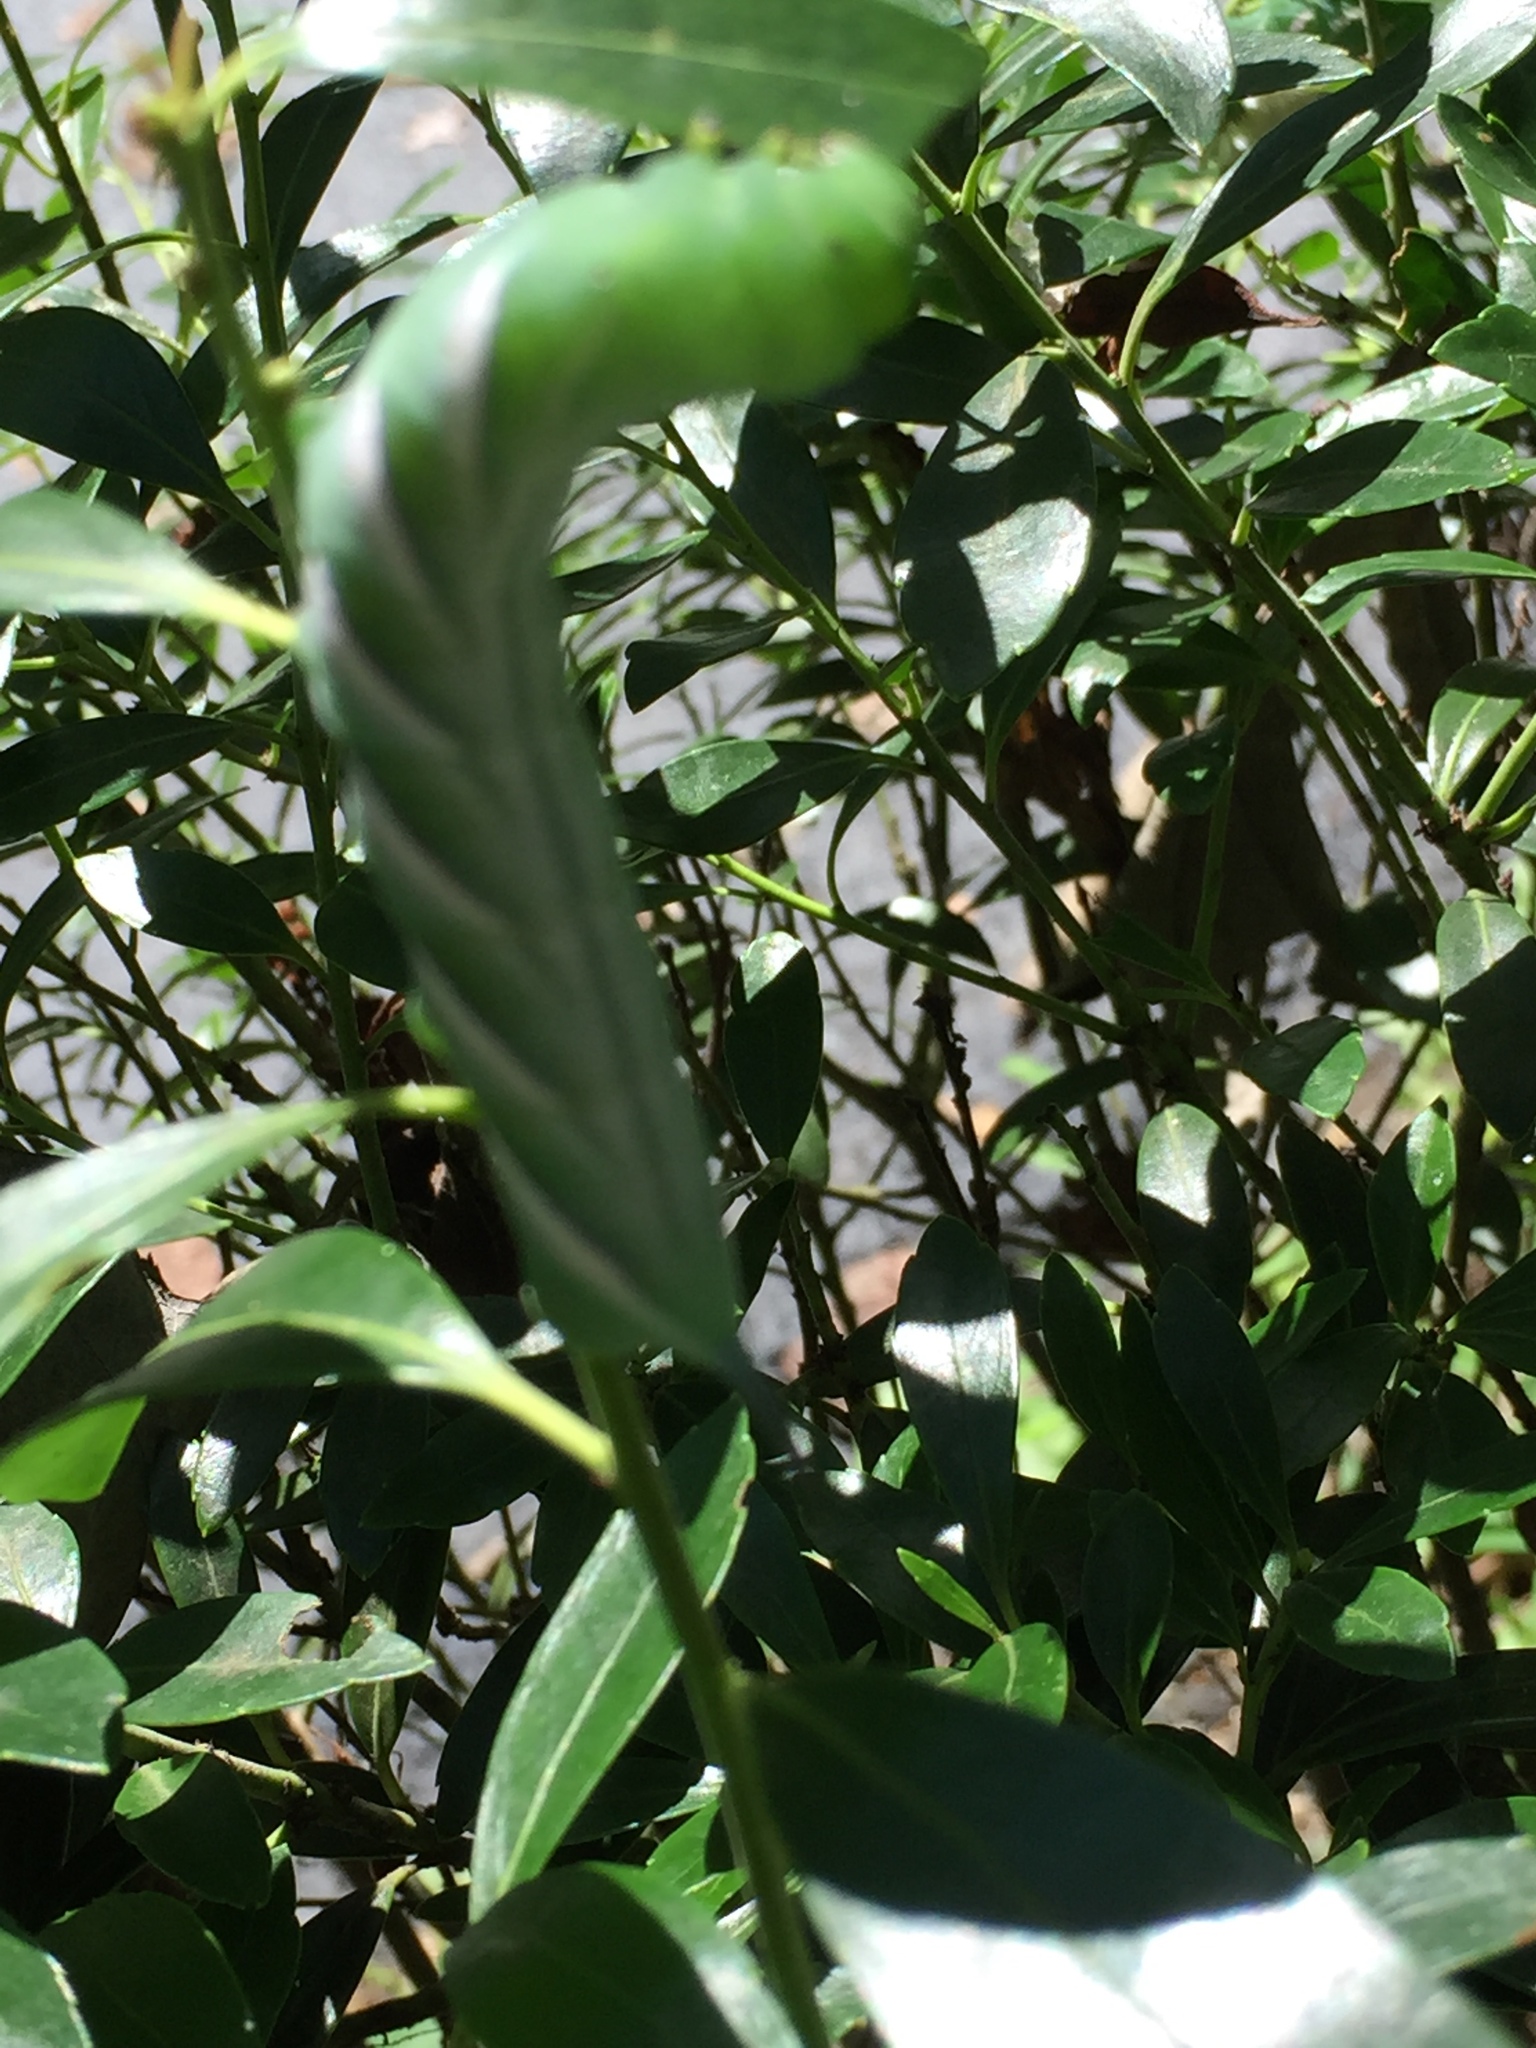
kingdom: Animalia
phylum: Arthropoda
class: Insecta
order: Lepidoptera
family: Sphingidae
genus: Manduca
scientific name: Manduca sexta
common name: Carolina sphinx
